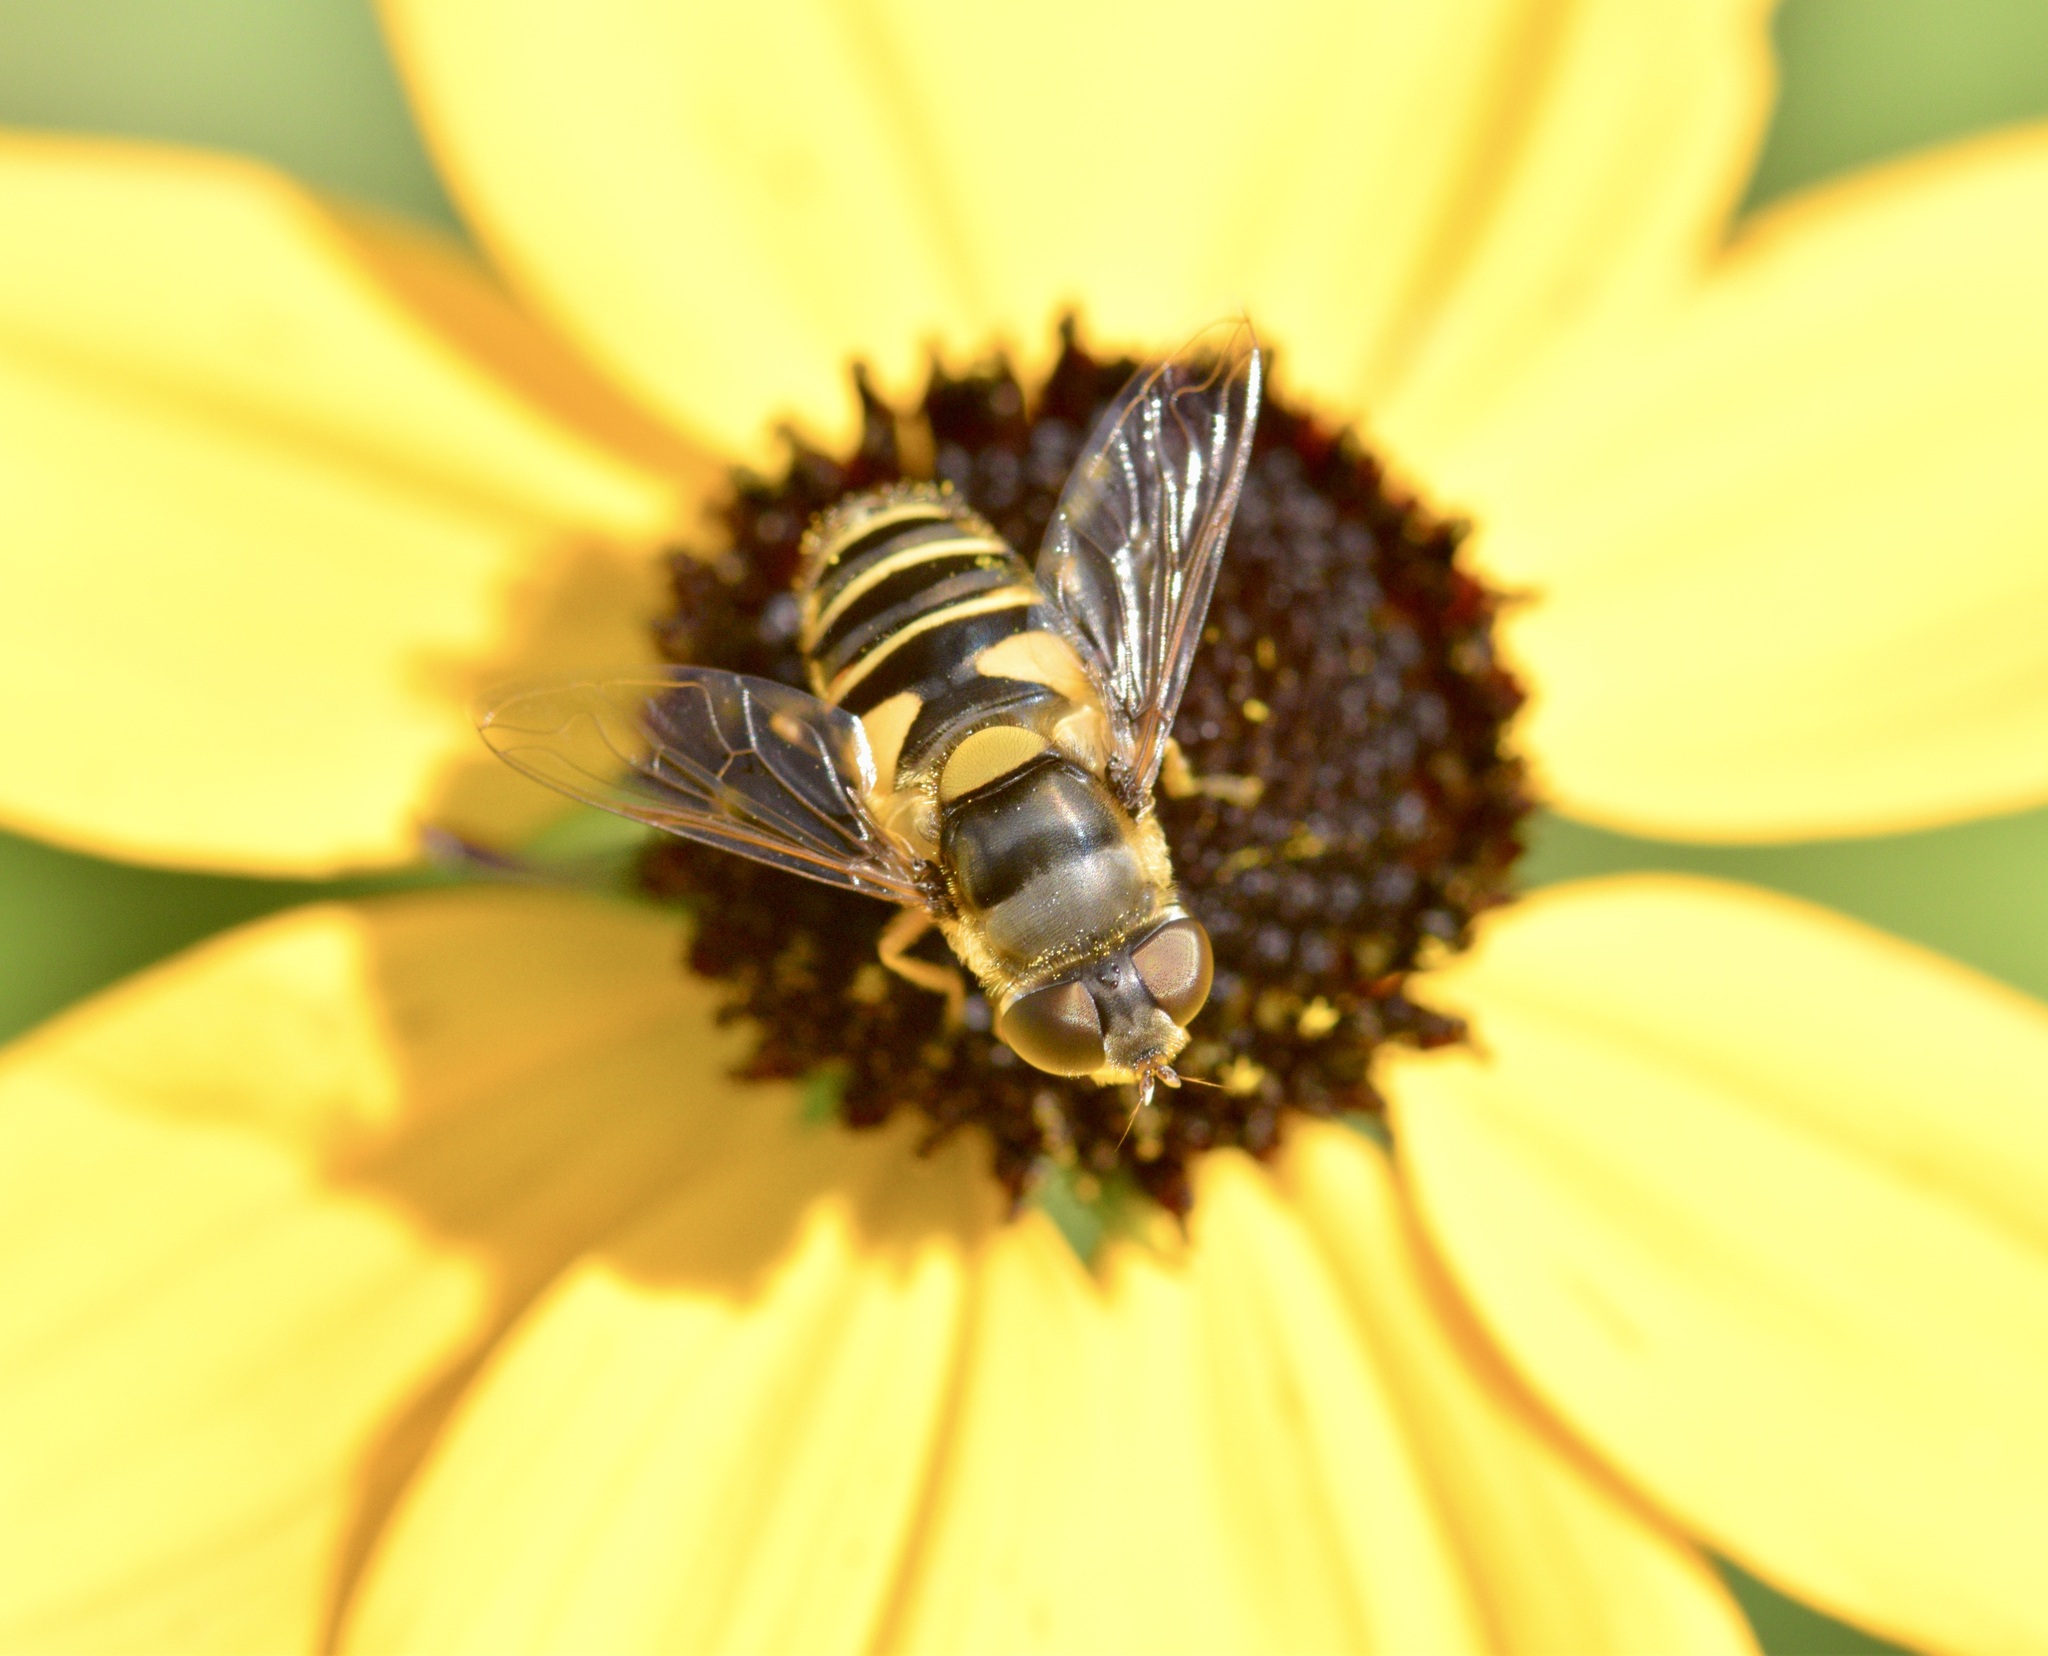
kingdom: Animalia
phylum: Arthropoda
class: Insecta
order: Diptera
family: Syrphidae
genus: Eristalis
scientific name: Eristalis transversa
